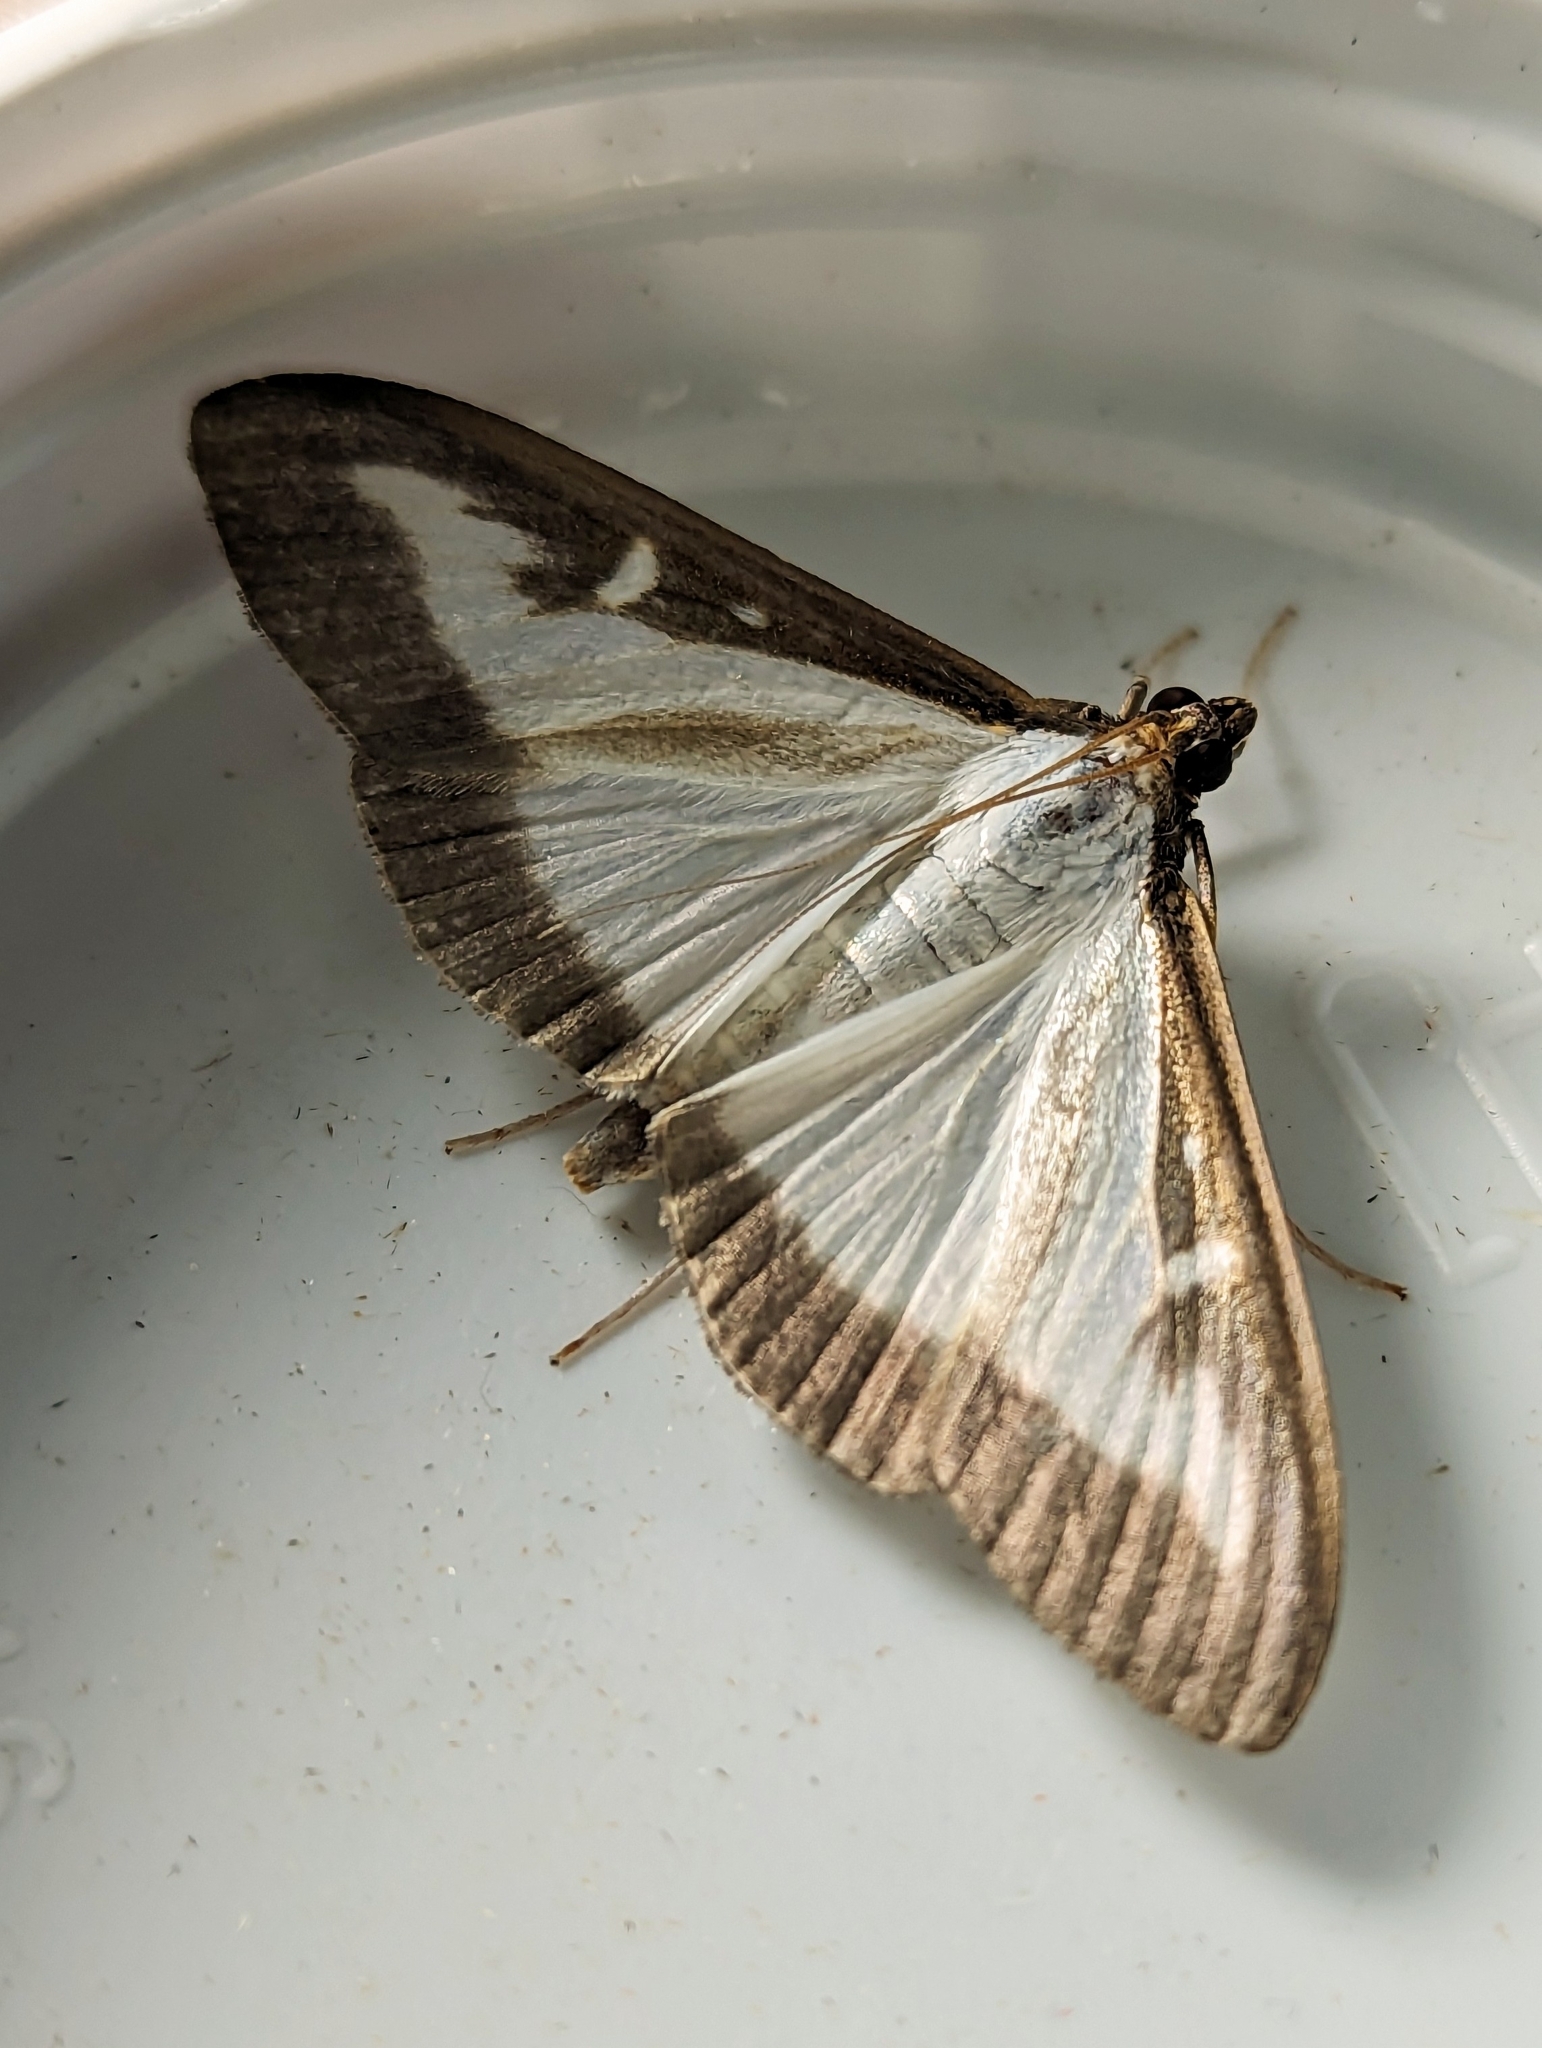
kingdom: Animalia
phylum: Arthropoda
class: Insecta
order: Lepidoptera
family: Crambidae
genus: Cydalima
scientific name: Cydalima perspectalis
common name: Box tree moth
